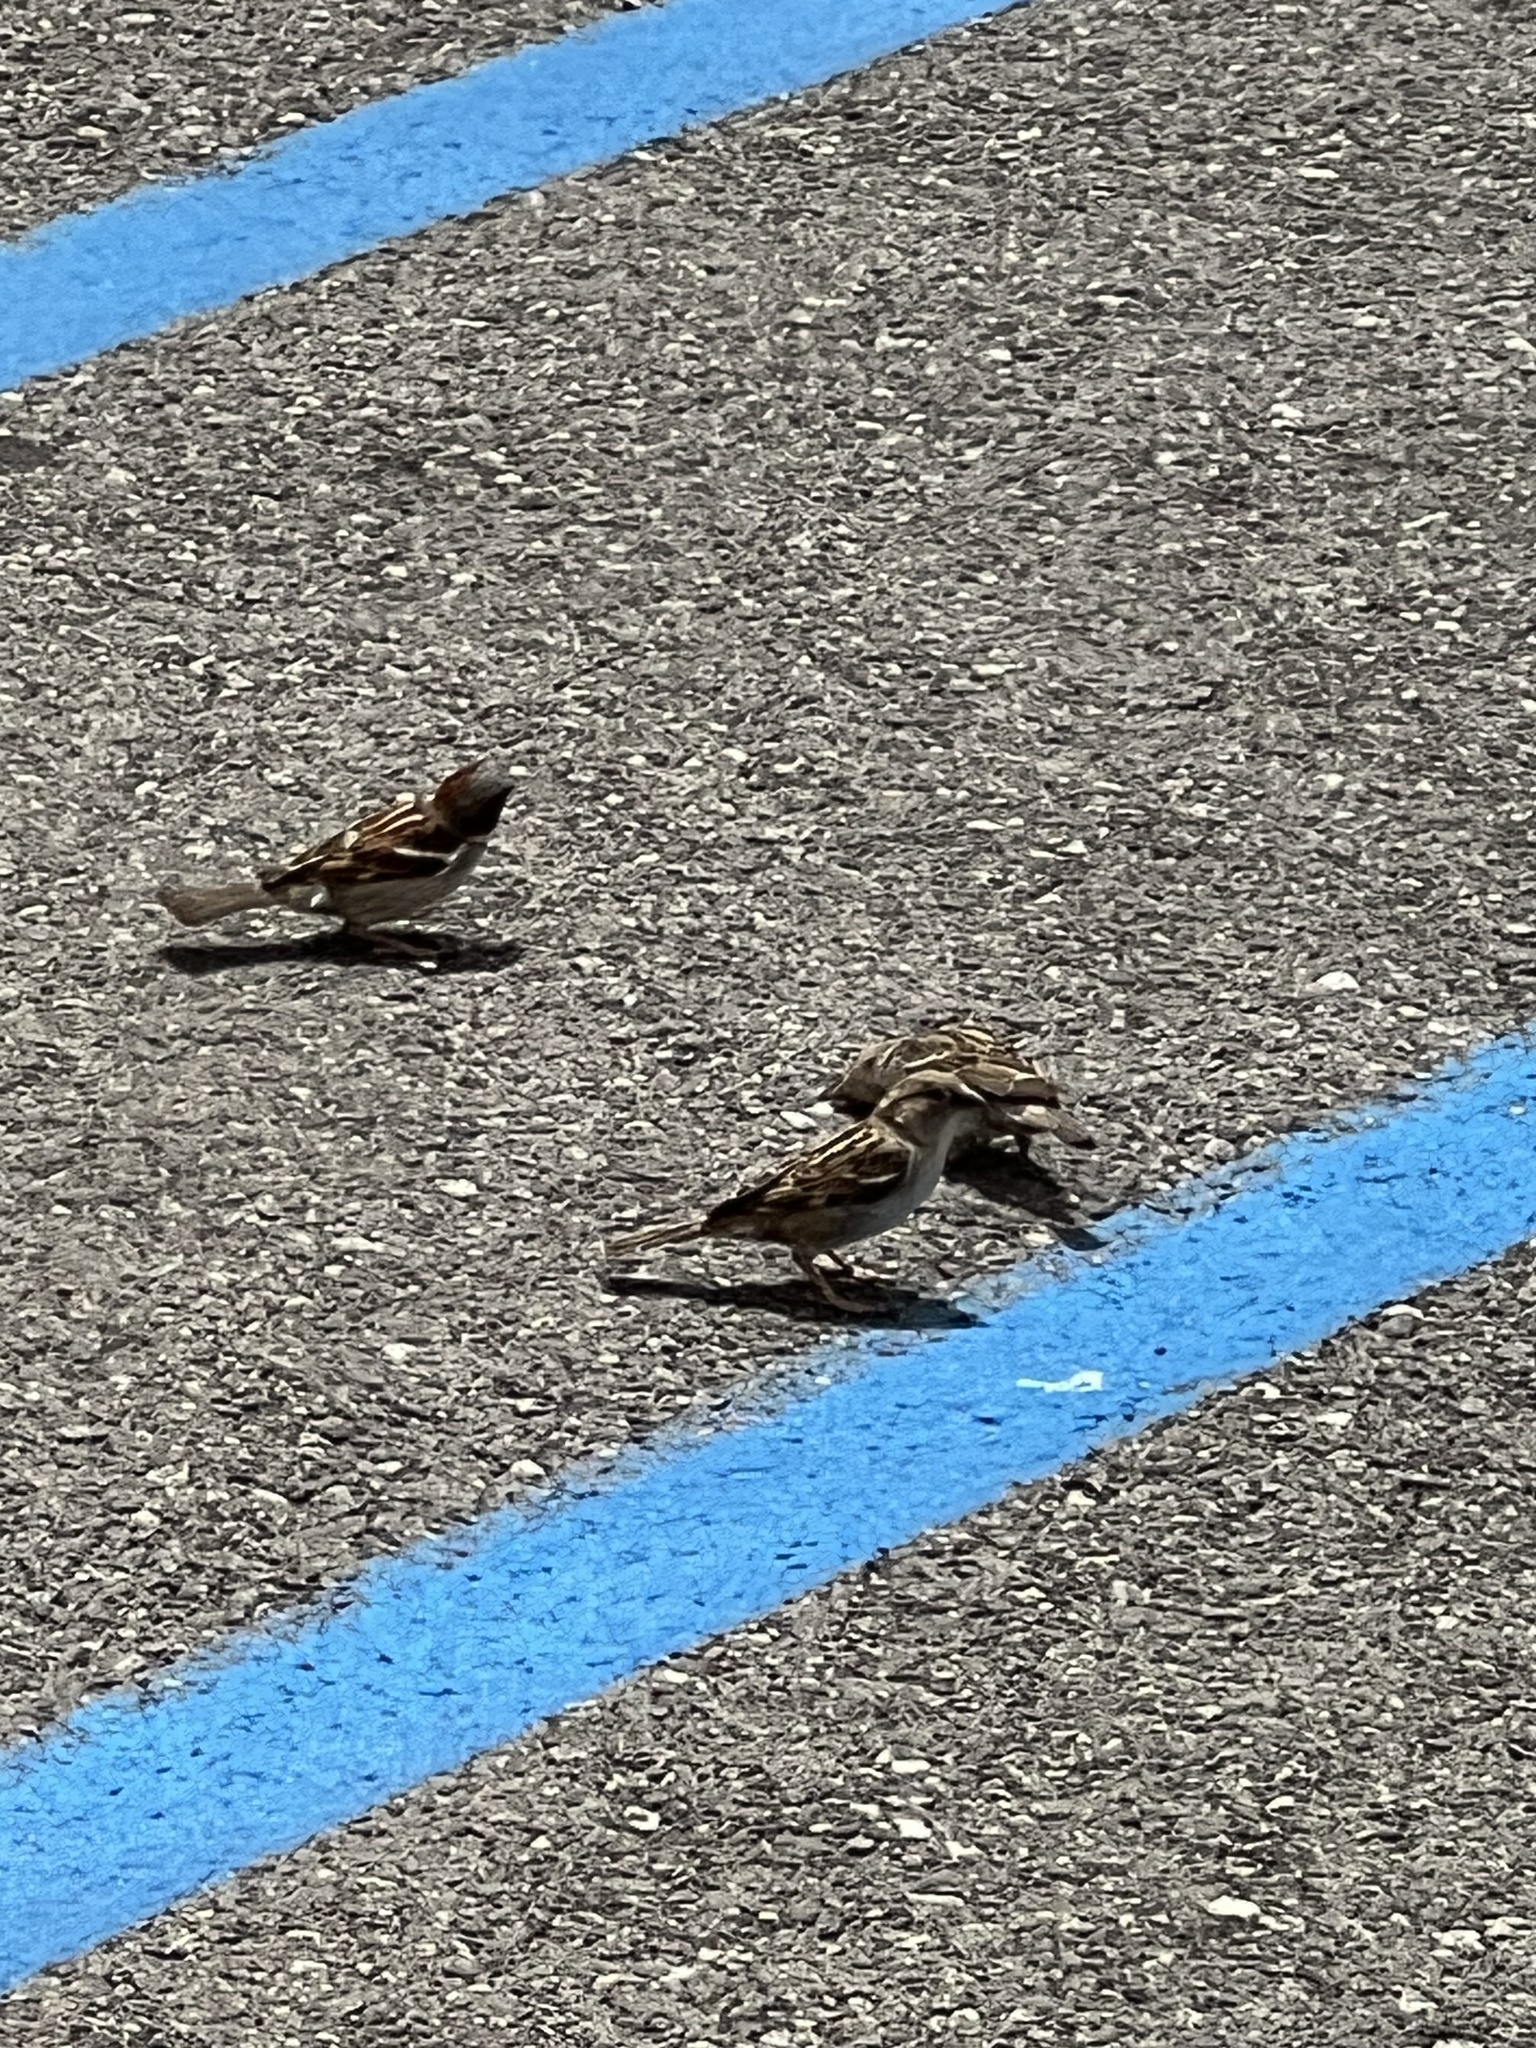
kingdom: Animalia
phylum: Chordata
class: Aves
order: Passeriformes
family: Passeridae
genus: Passer
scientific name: Passer domesticus
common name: House sparrow
